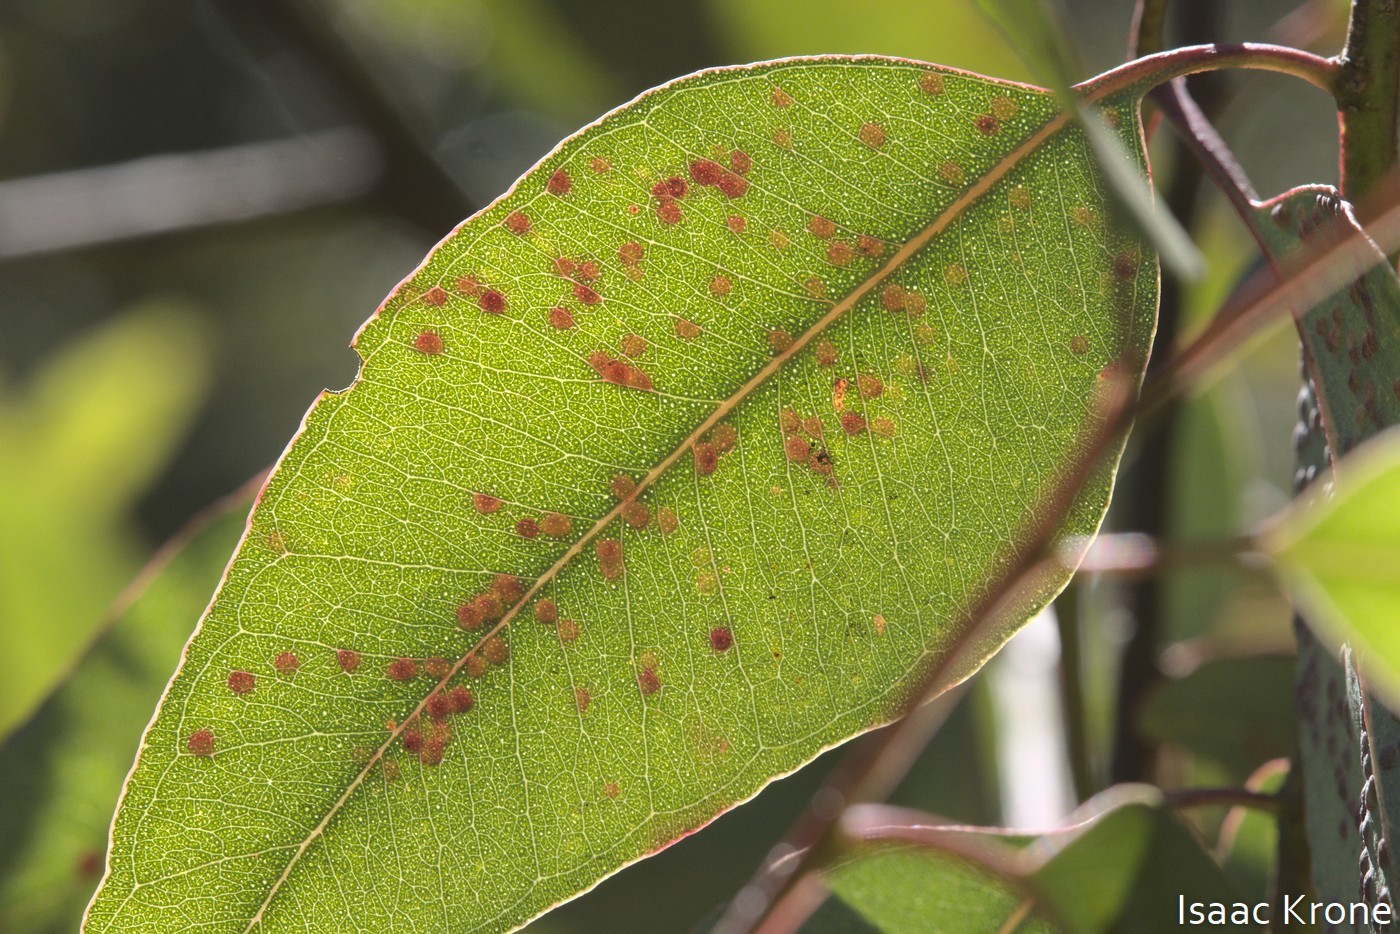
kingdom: Animalia
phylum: Arthropoda
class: Insecta
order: Hymenoptera
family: Eulophidae
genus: Ophelimus
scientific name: Ophelimus maskelli
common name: Gall wasp
